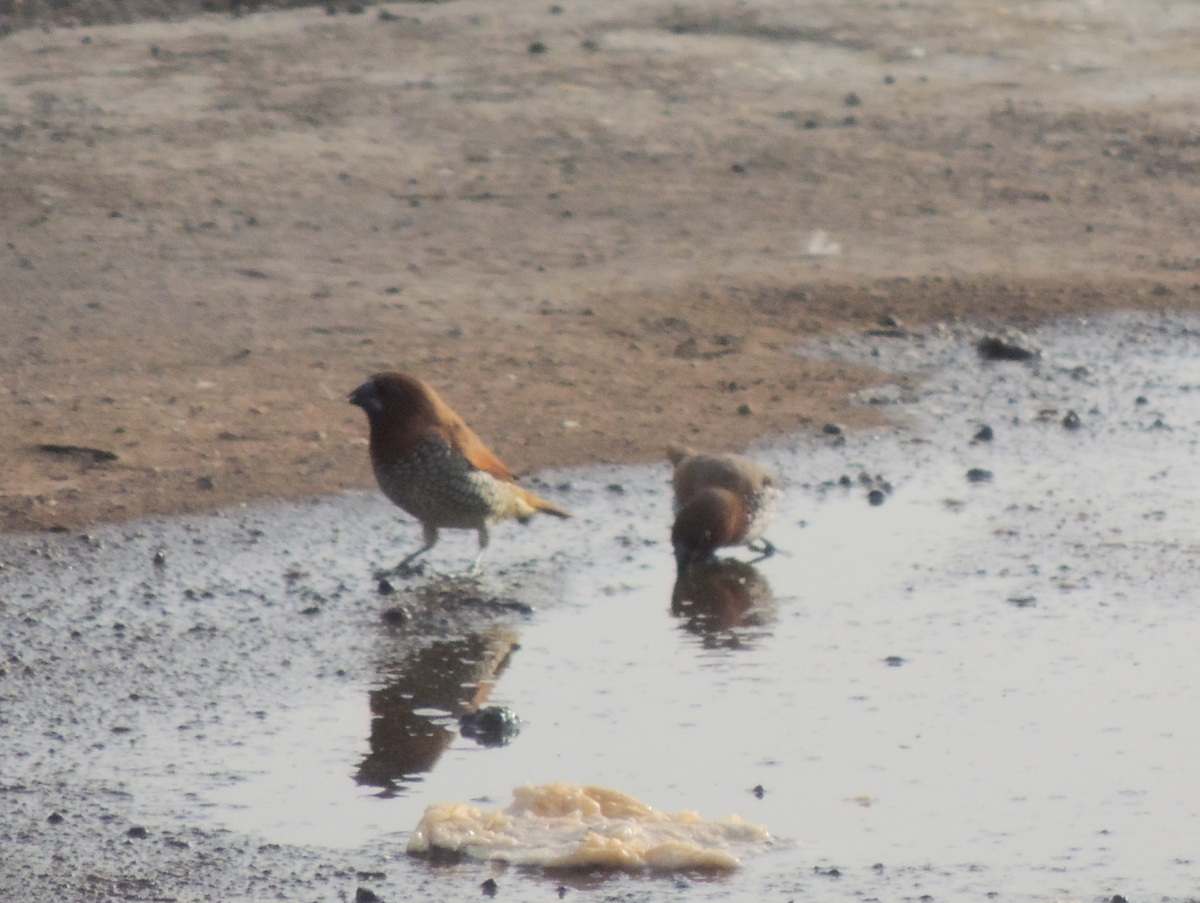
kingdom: Animalia
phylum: Chordata
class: Aves
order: Passeriformes
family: Estrildidae
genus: Lonchura
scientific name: Lonchura punctulata
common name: Scaly-breasted munia
